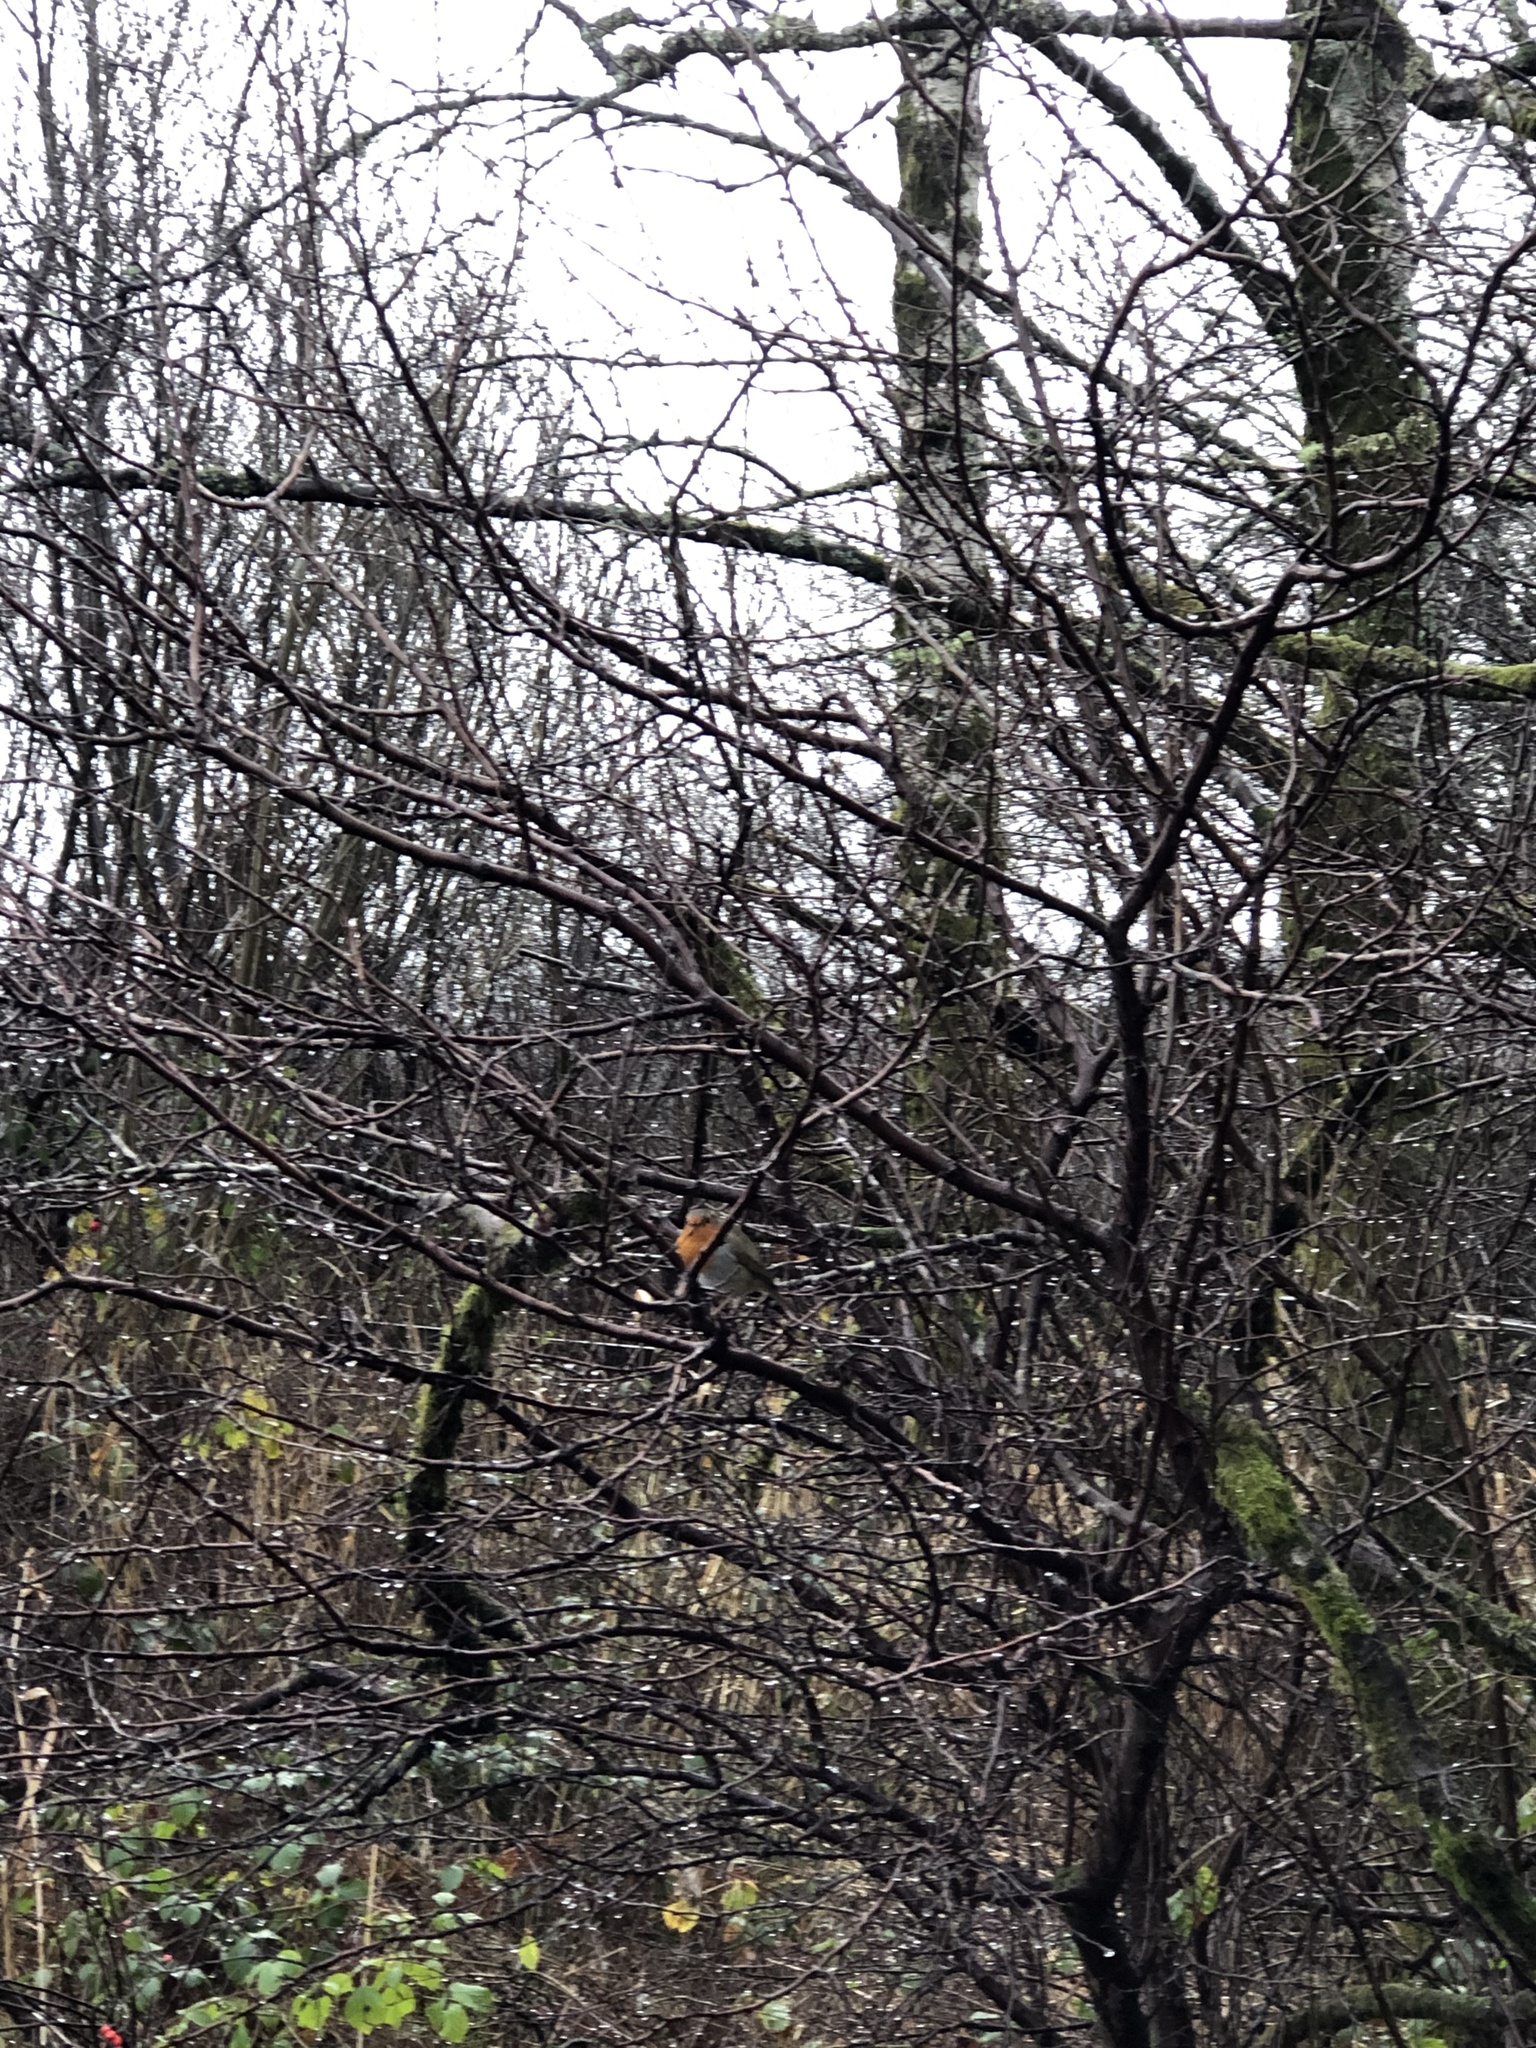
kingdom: Animalia
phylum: Chordata
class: Aves
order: Passeriformes
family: Muscicapidae
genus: Erithacus
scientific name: Erithacus rubecula
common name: European robin
